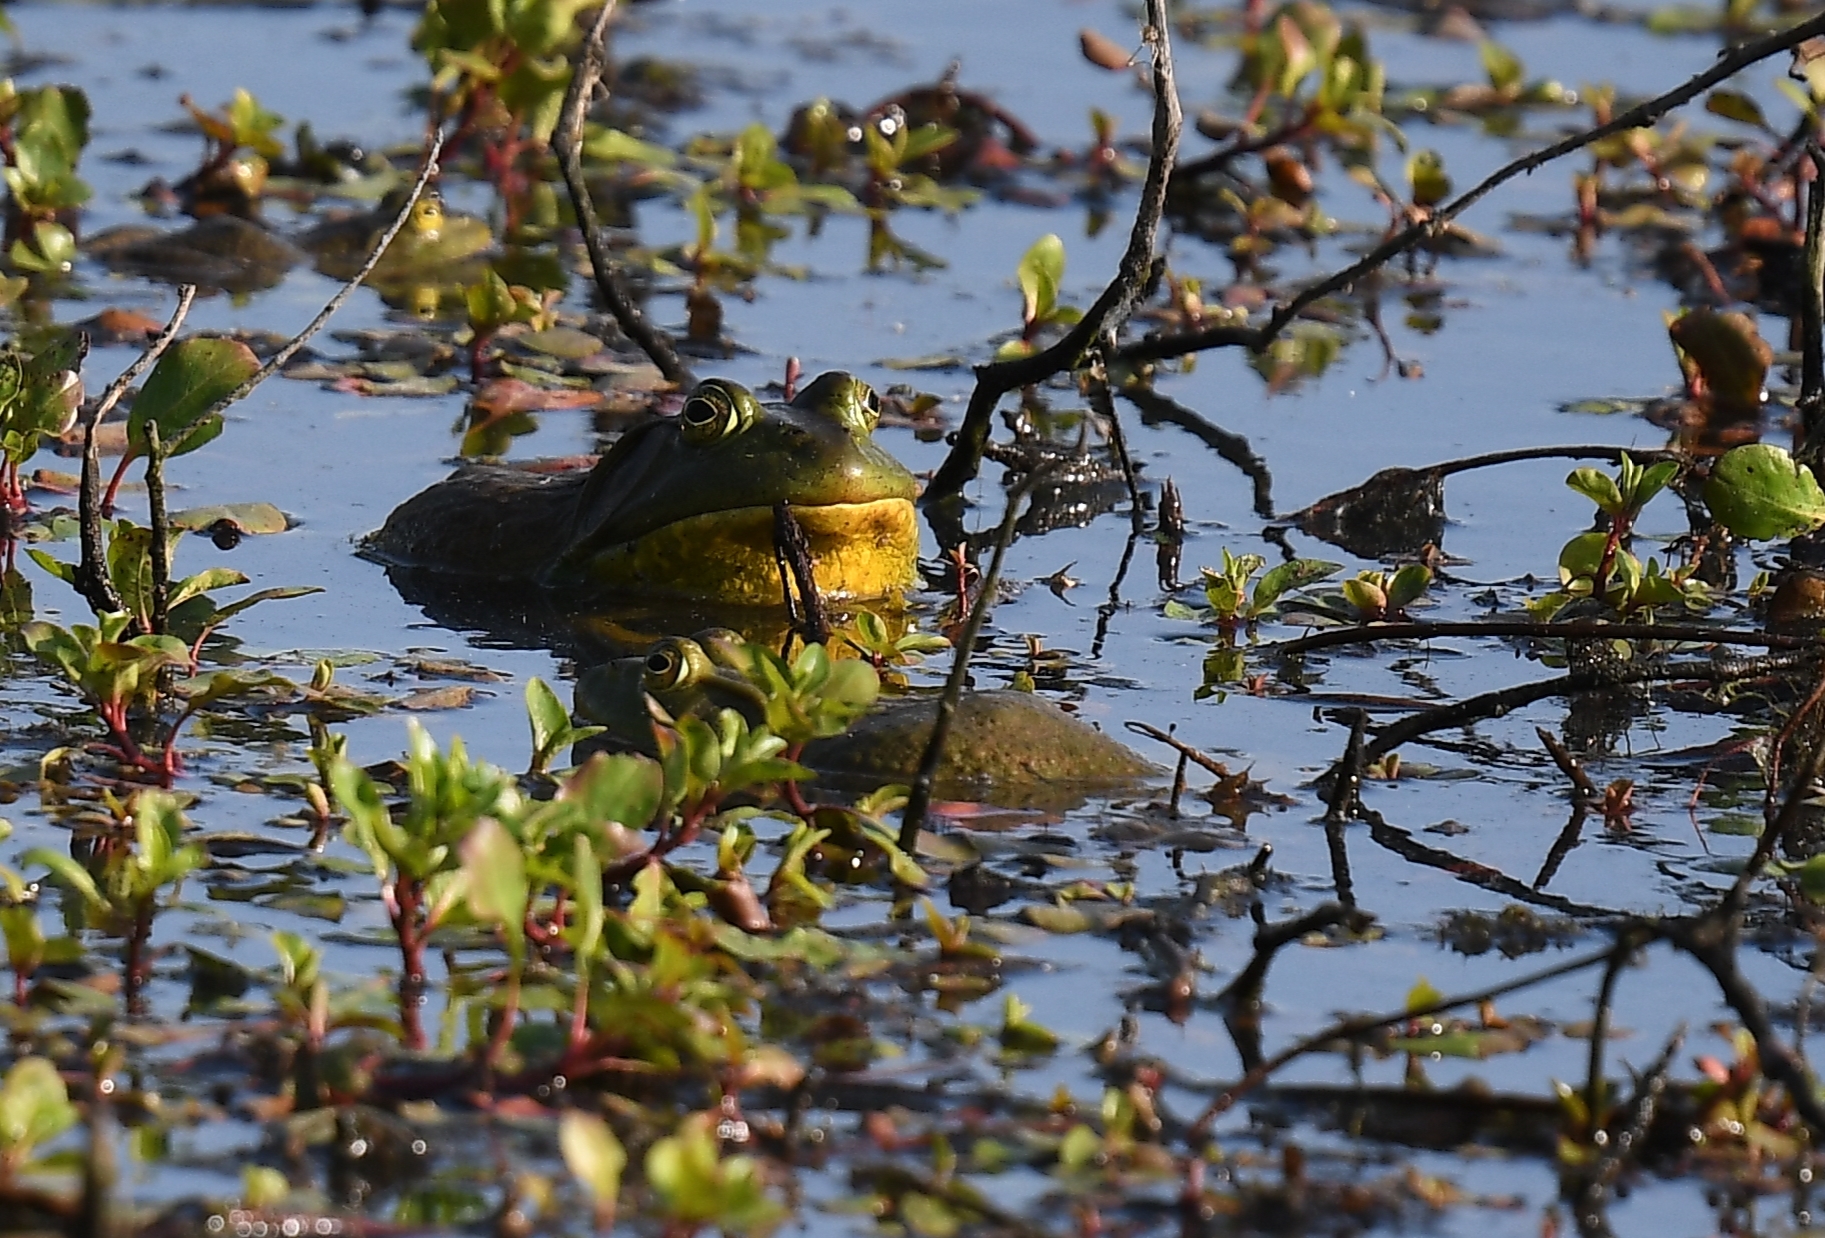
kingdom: Animalia
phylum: Chordata
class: Amphibia
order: Anura
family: Ranidae
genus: Lithobates
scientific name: Lithobates catesbeianus
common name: American bullfrog
